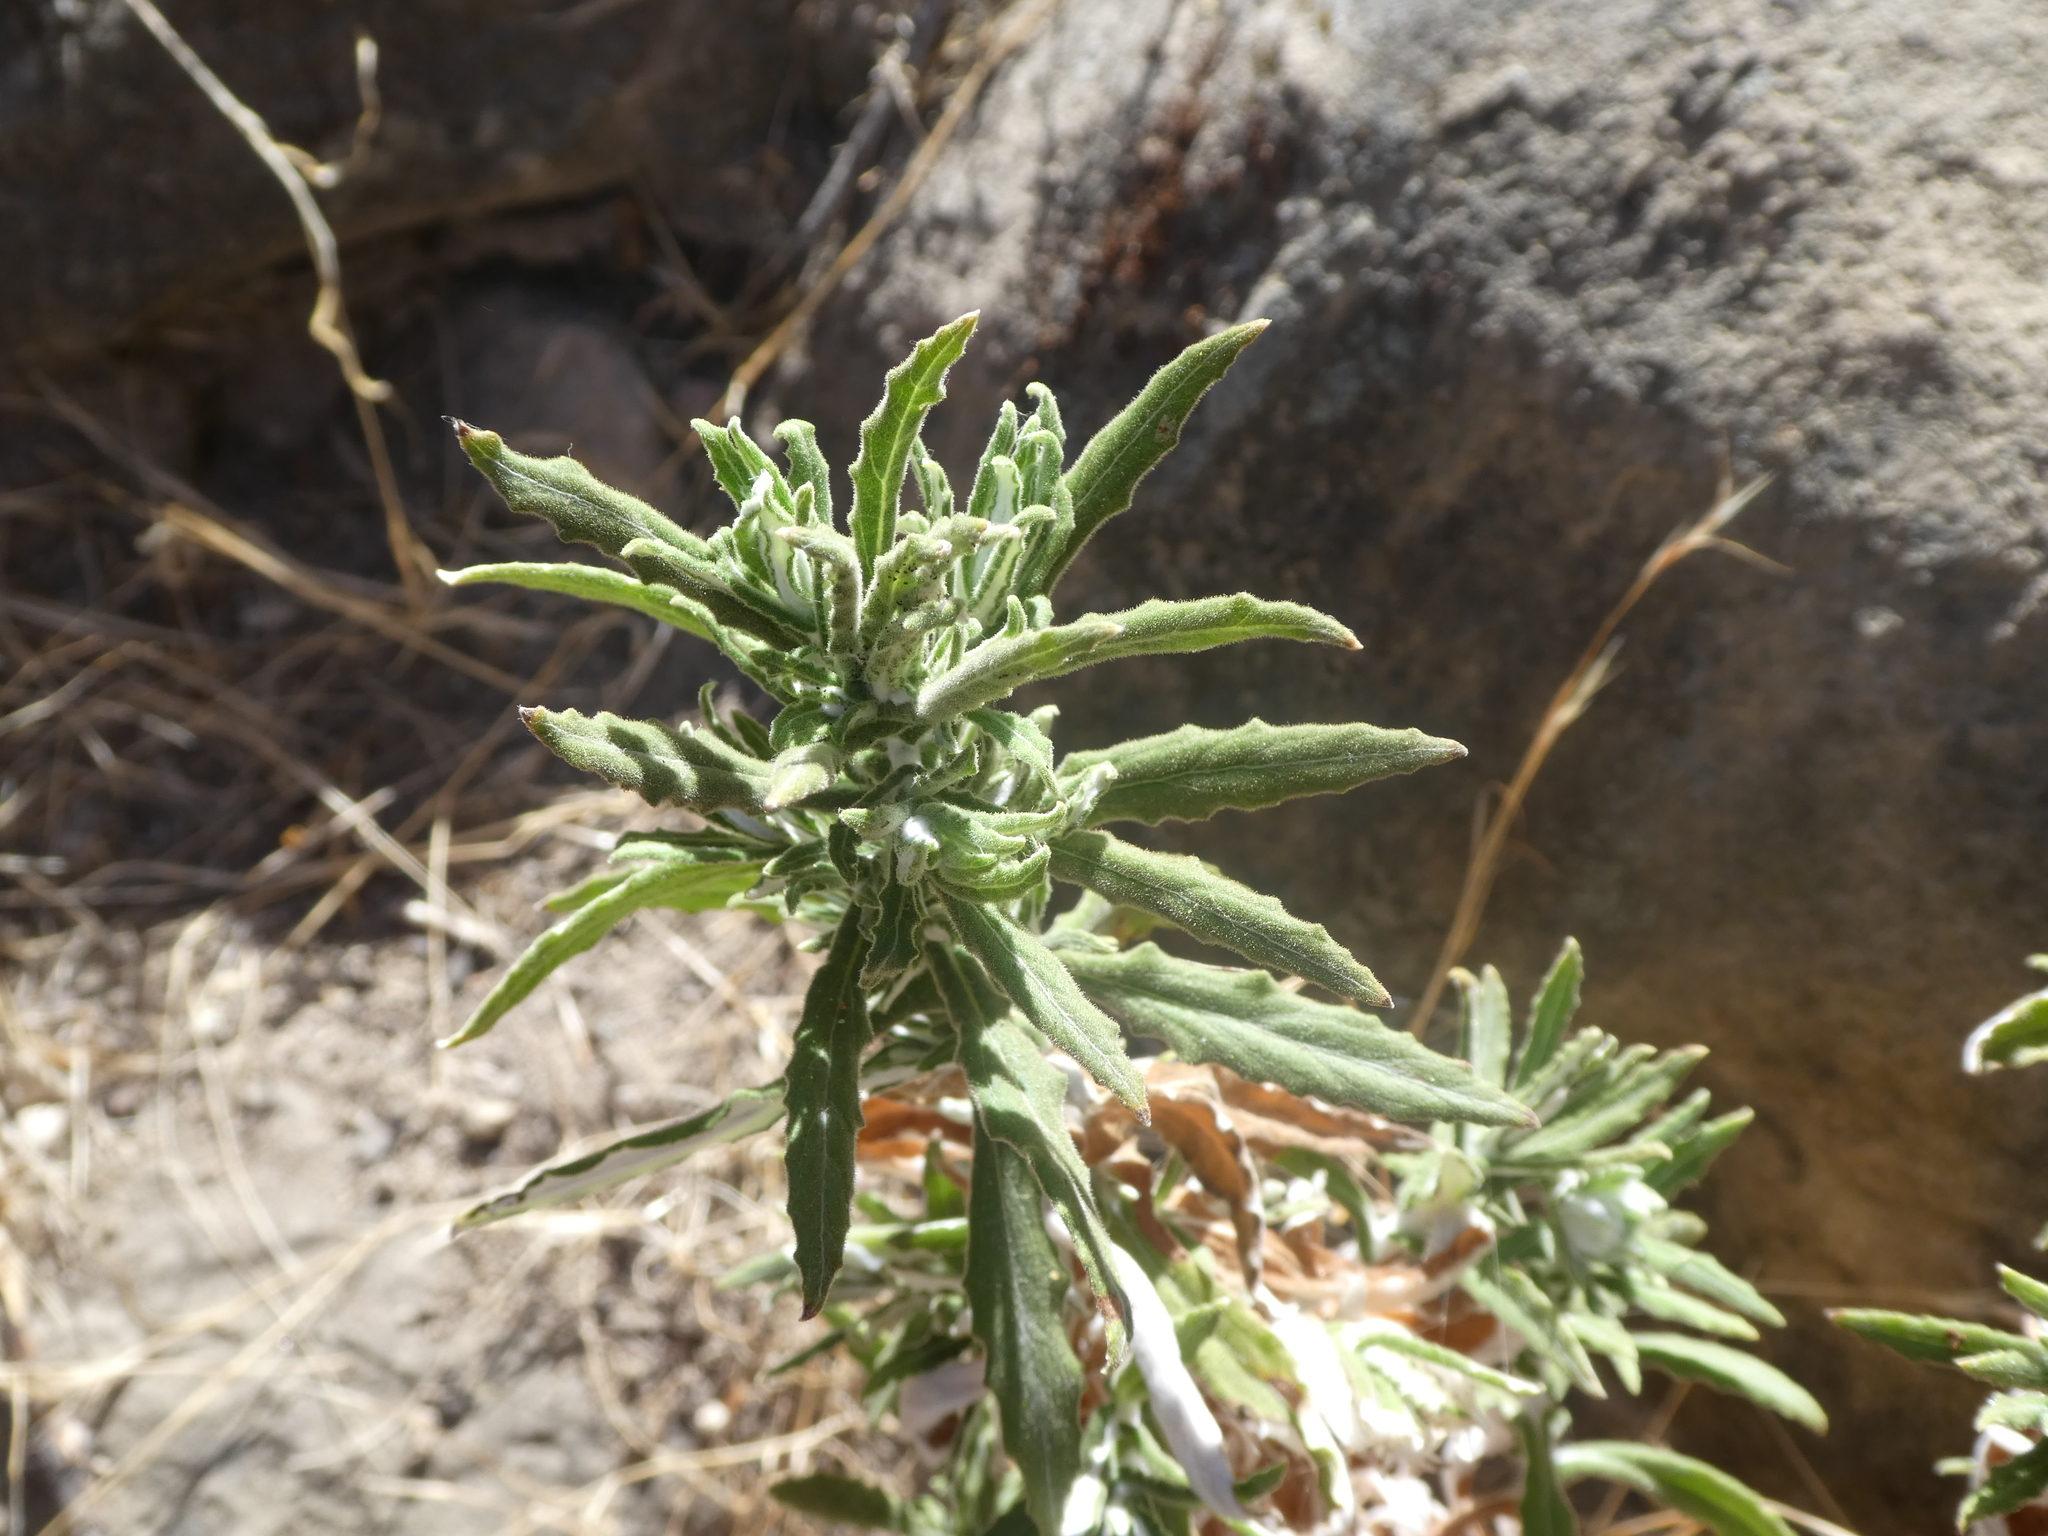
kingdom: Plantae
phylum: Tracheophyta
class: Magnoliopsida
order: Asterales
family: Asteraceae
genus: Pseudognaphalium
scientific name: Pseudognaphalium biolettii
